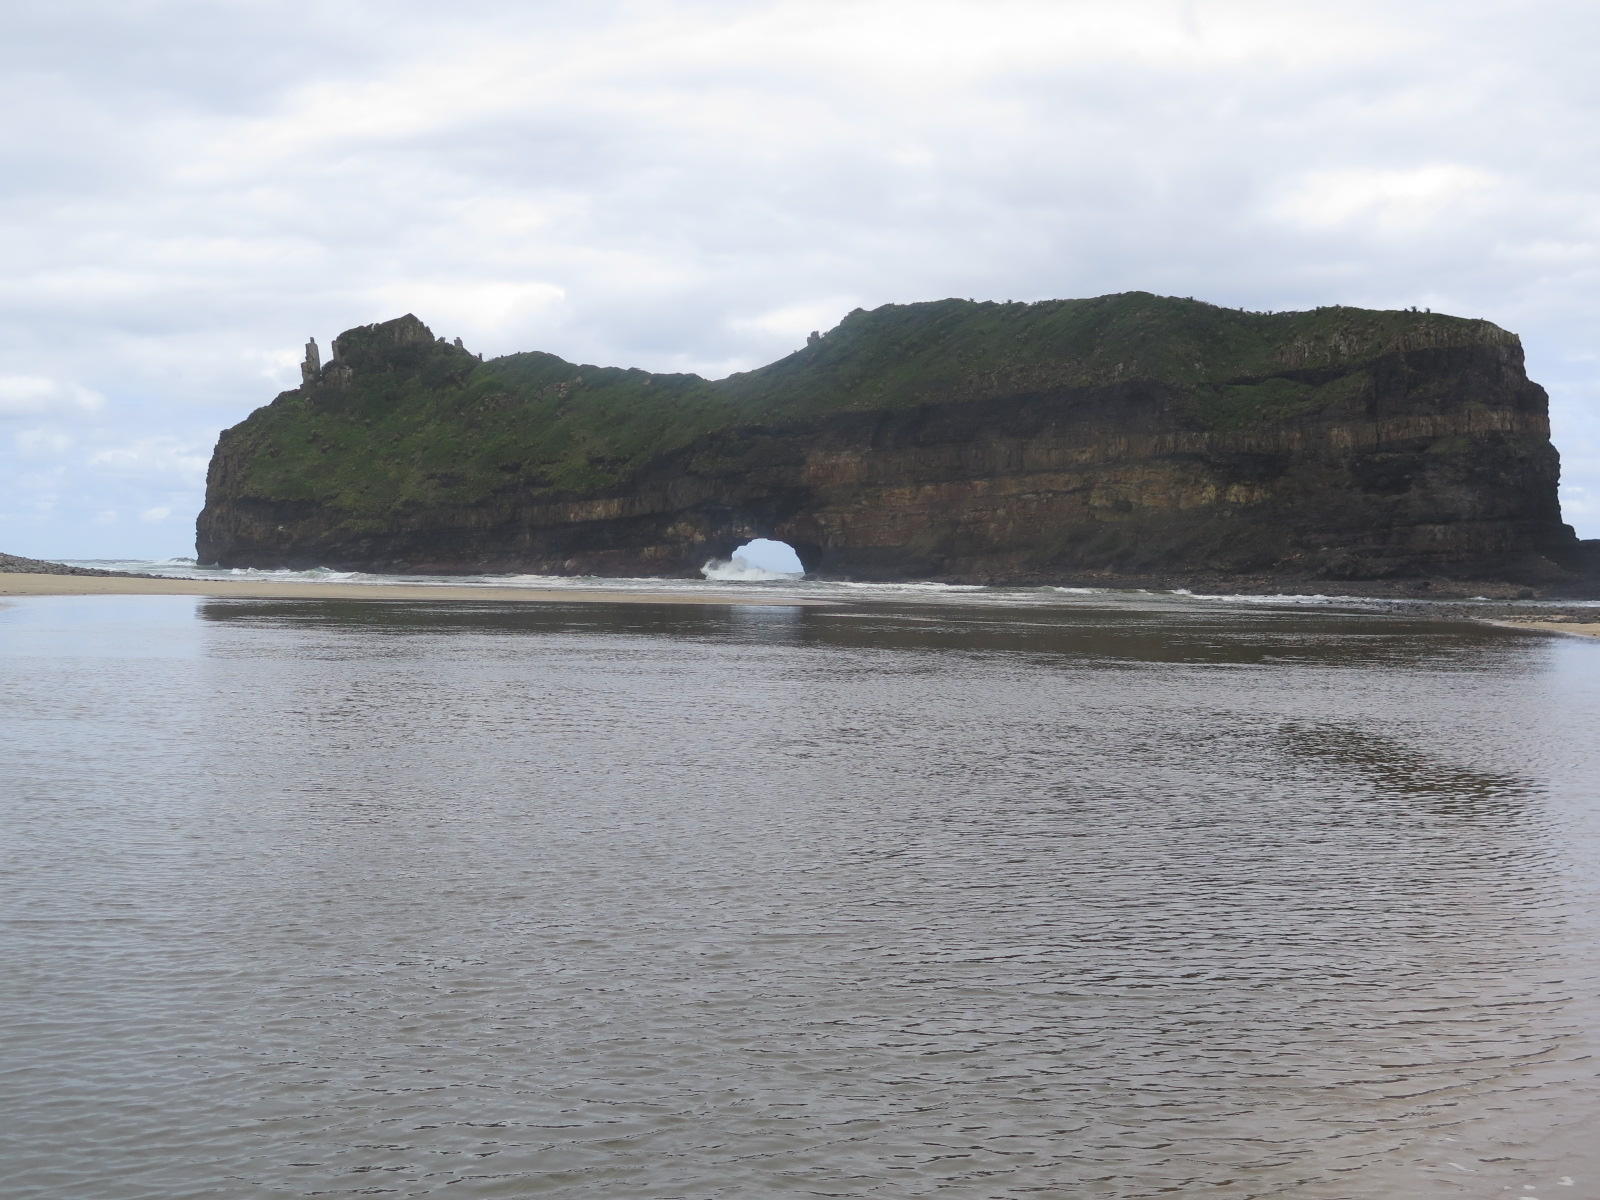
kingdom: Plantae
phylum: Tracheophyta
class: Liliopsida
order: Asparagales
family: Asphodelaceae
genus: Aloe
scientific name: Aloe ferox
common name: Bitter aloe
